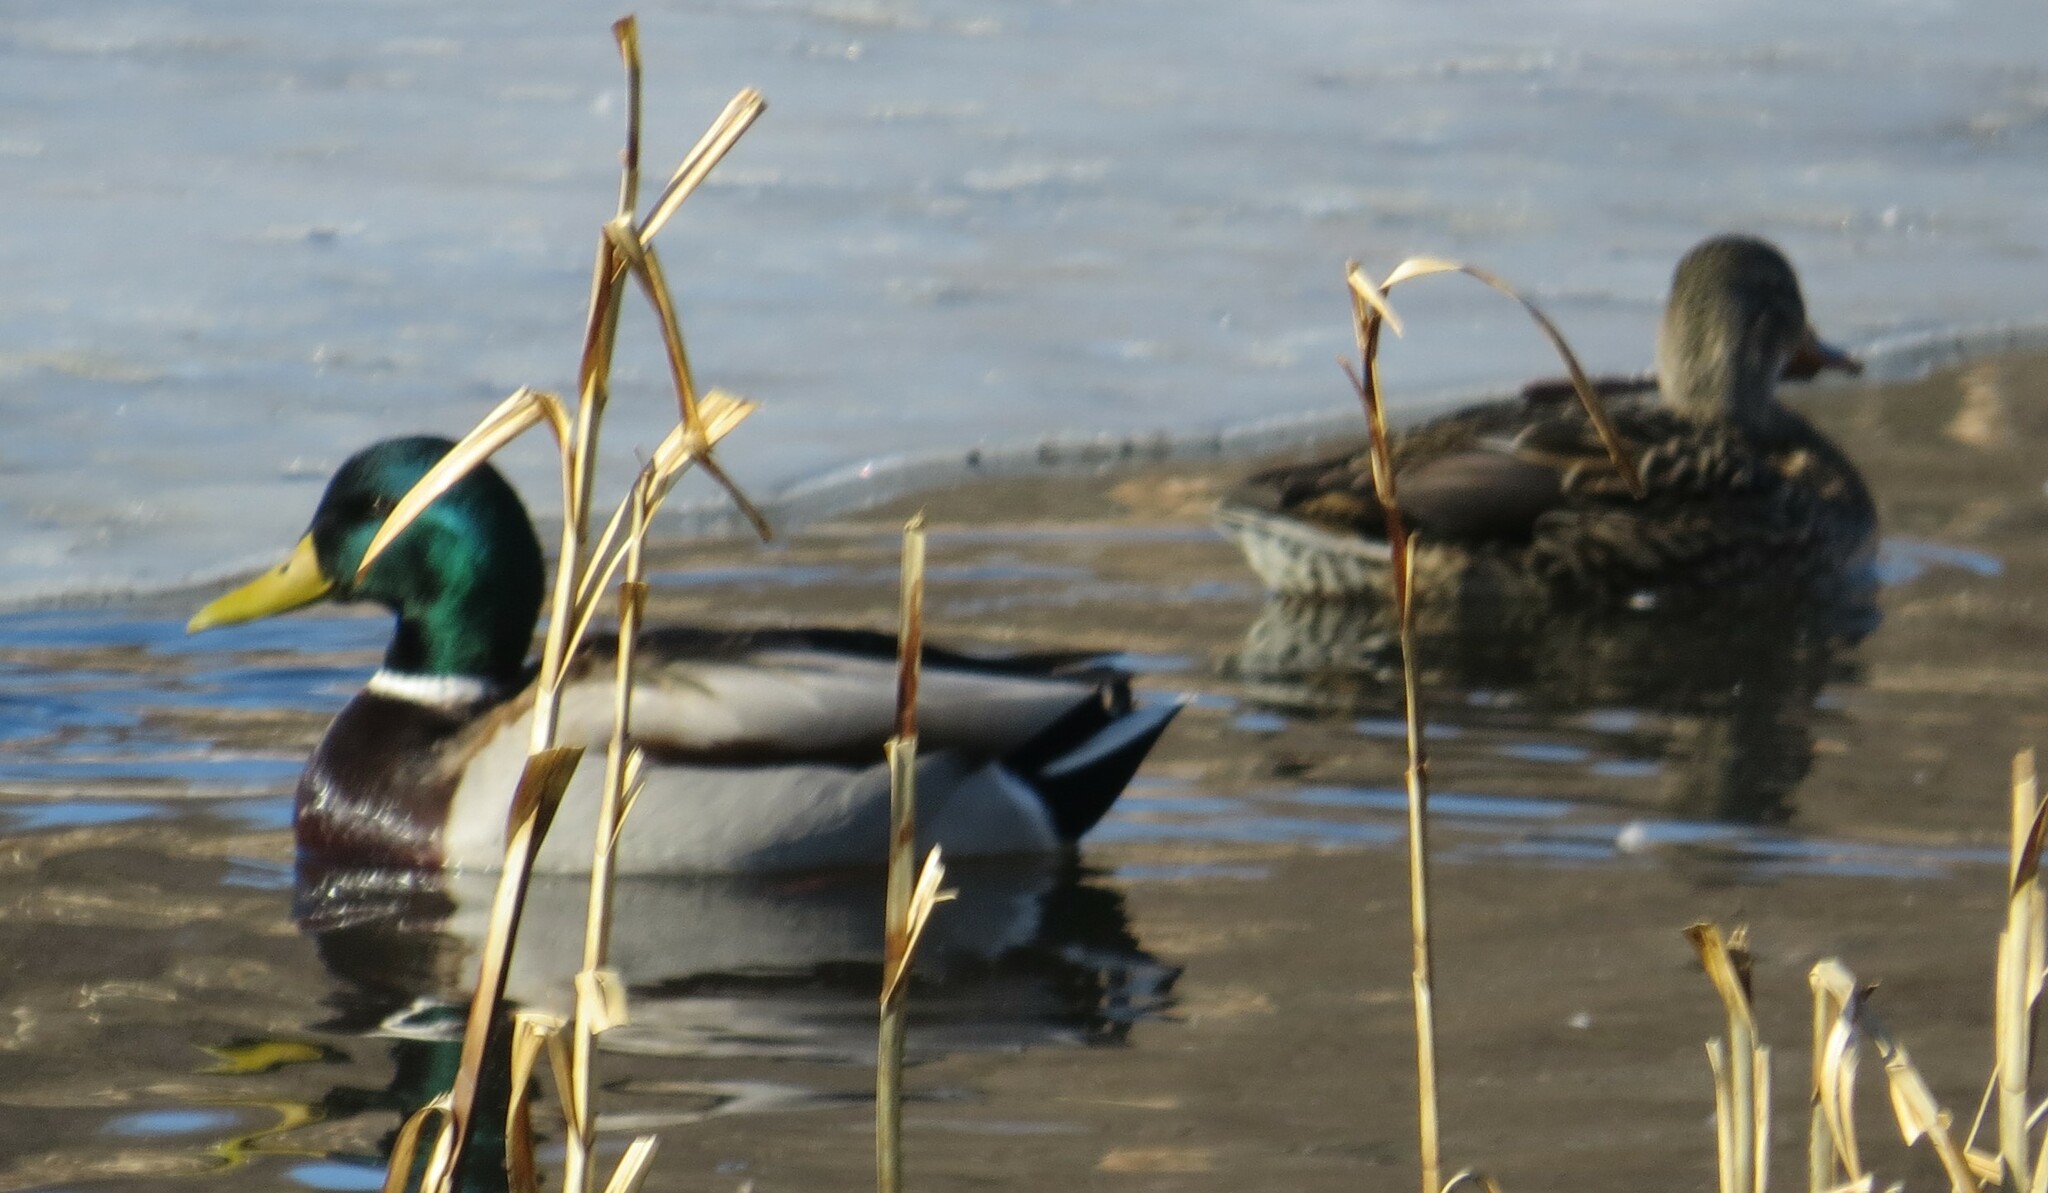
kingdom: Animalia
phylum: Chordata
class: Aves
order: Anseriformes
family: Anatidae
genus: Anas
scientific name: Anas platyrhynchos
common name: Mallard
